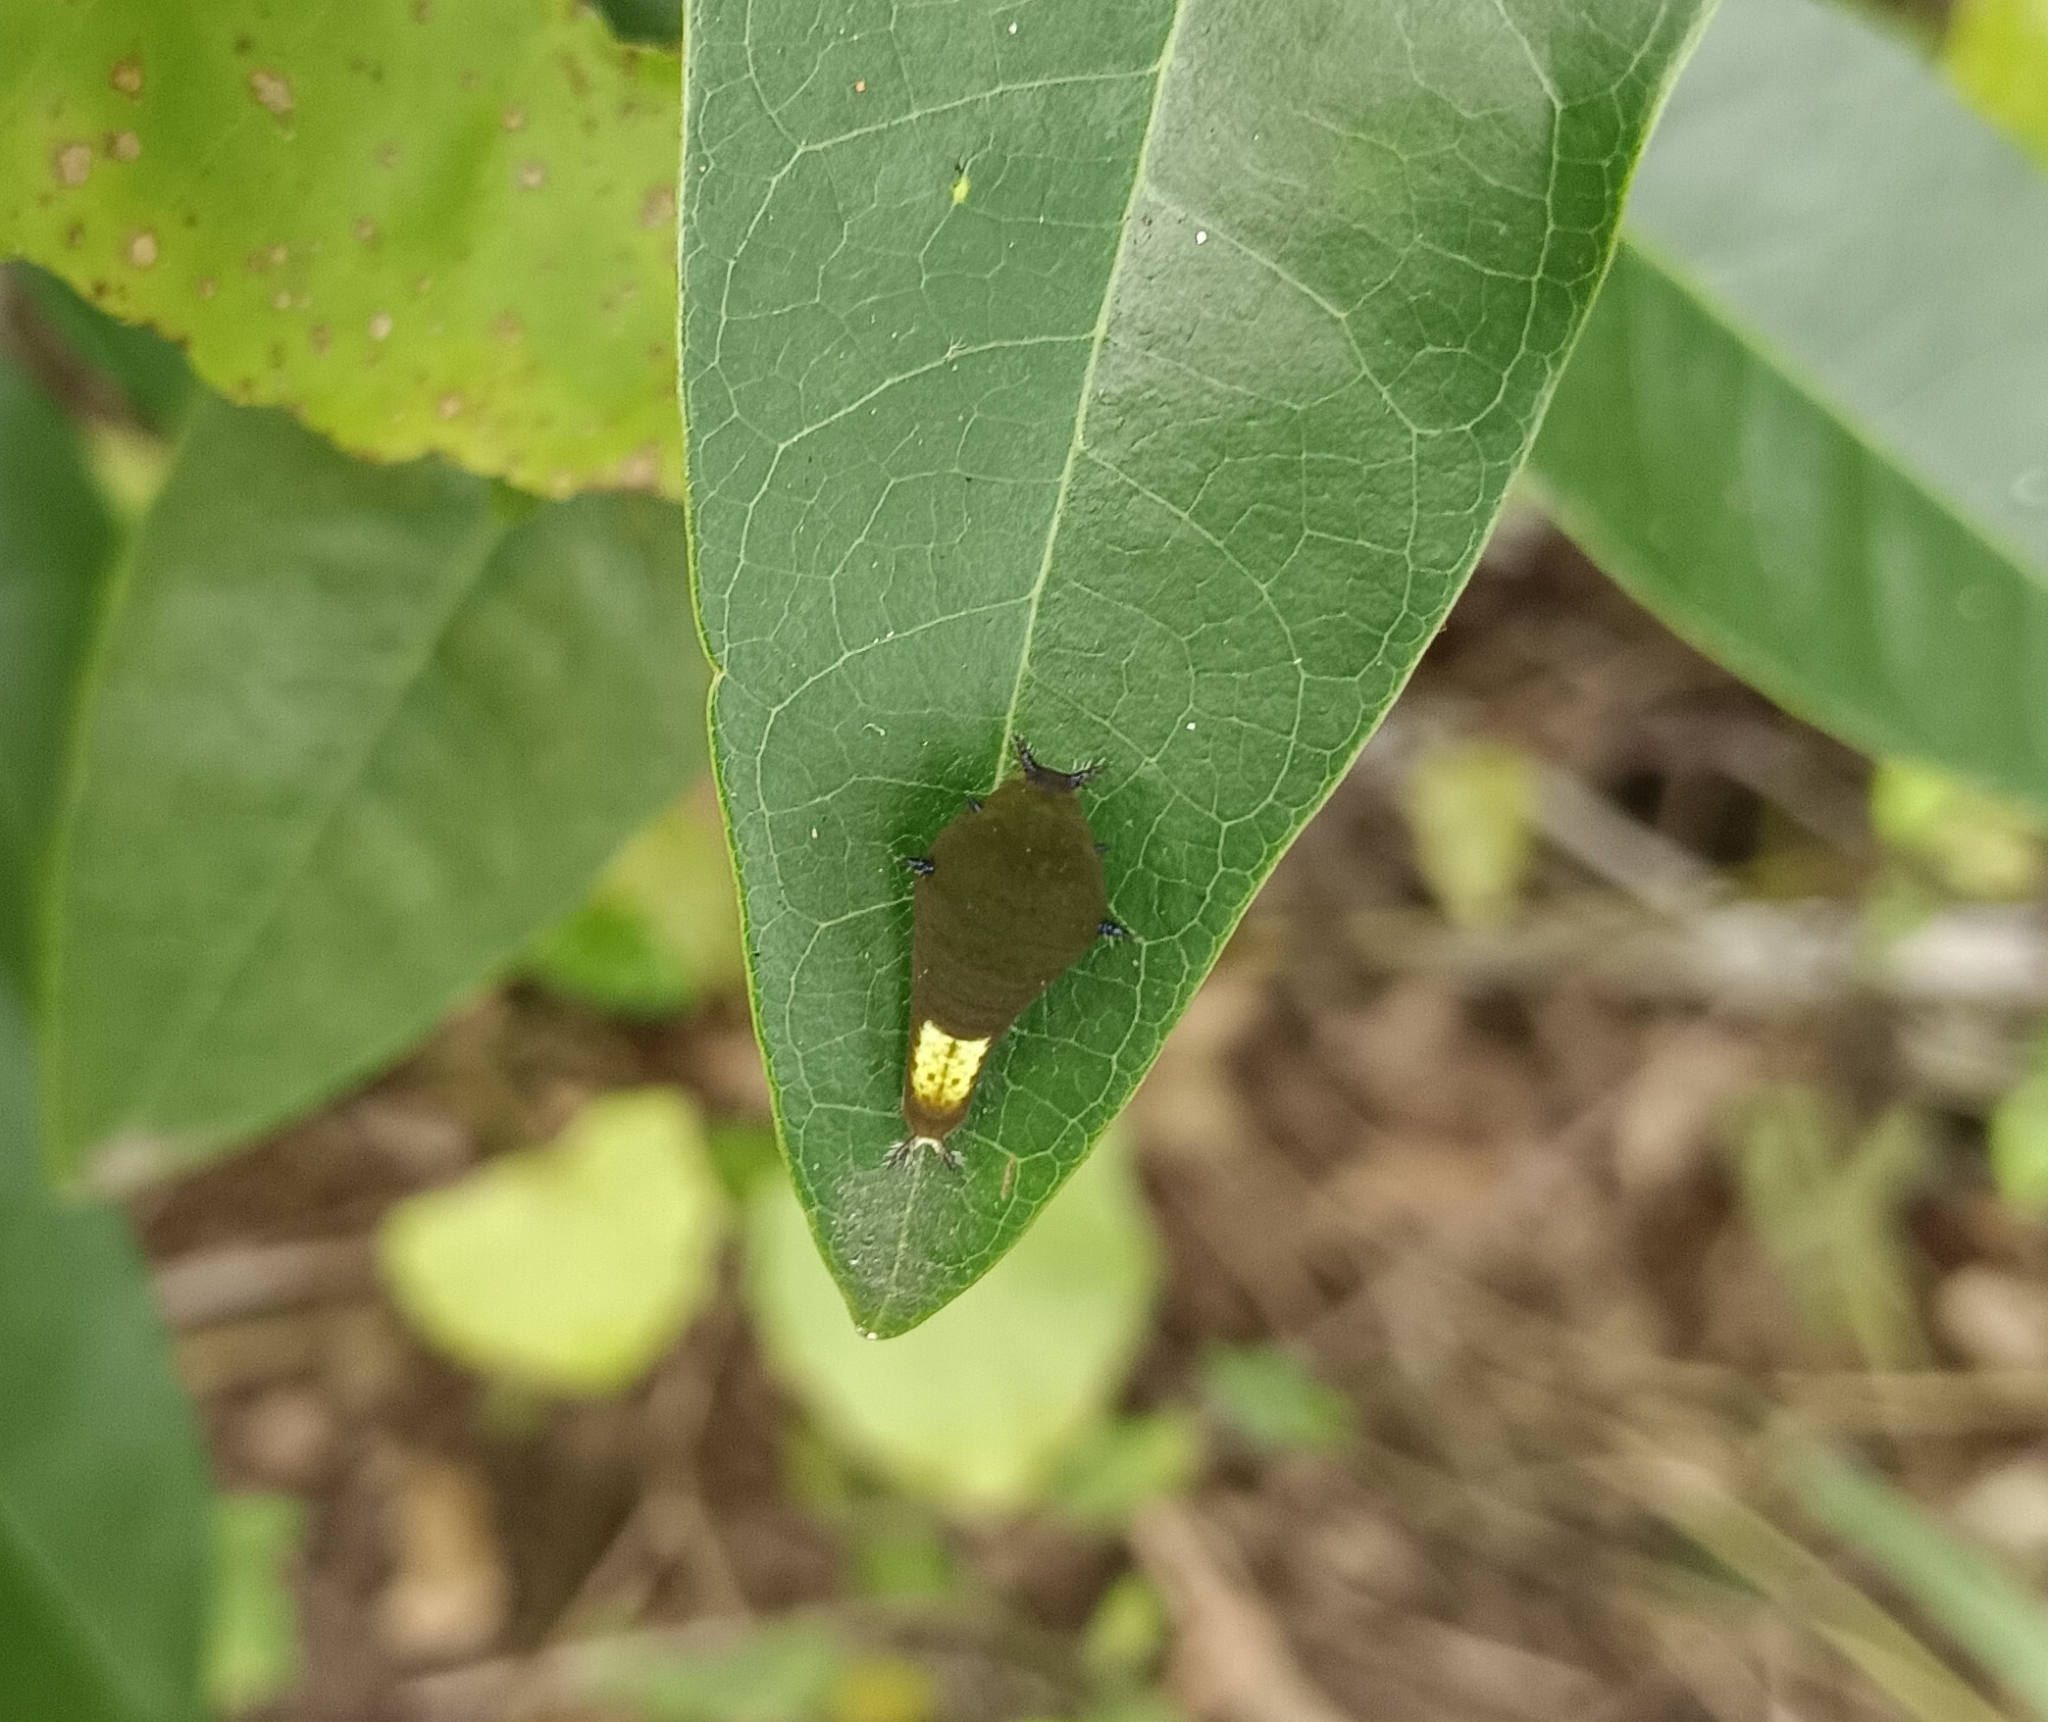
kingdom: Animalia
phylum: Arthropoda
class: Insecta
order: Lepidoptera
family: Papilionidae
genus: Graphium
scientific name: Graphium agamemnon
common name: Tailed jay
